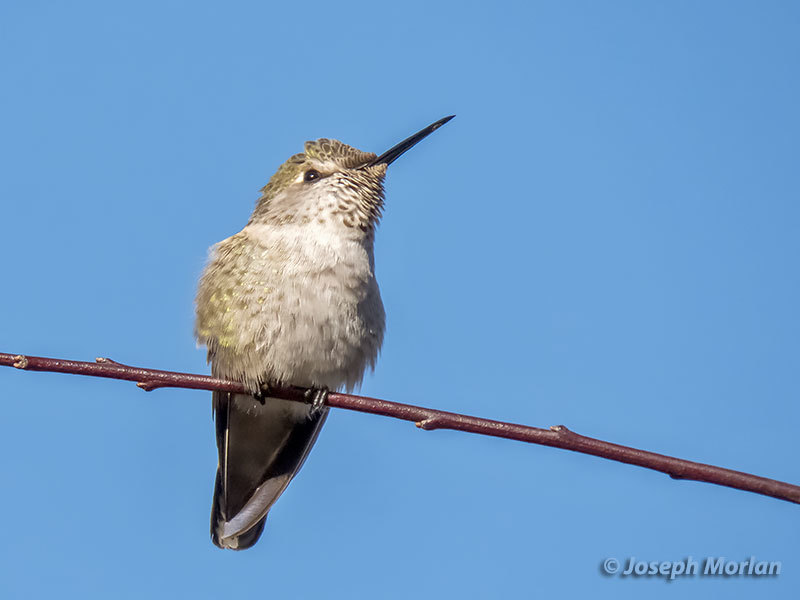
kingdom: Animalia
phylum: Chordata
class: Aves
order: Apodiformes
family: Trochilidae
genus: Calypte
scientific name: Calypte anna
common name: Anna's hummingbird
